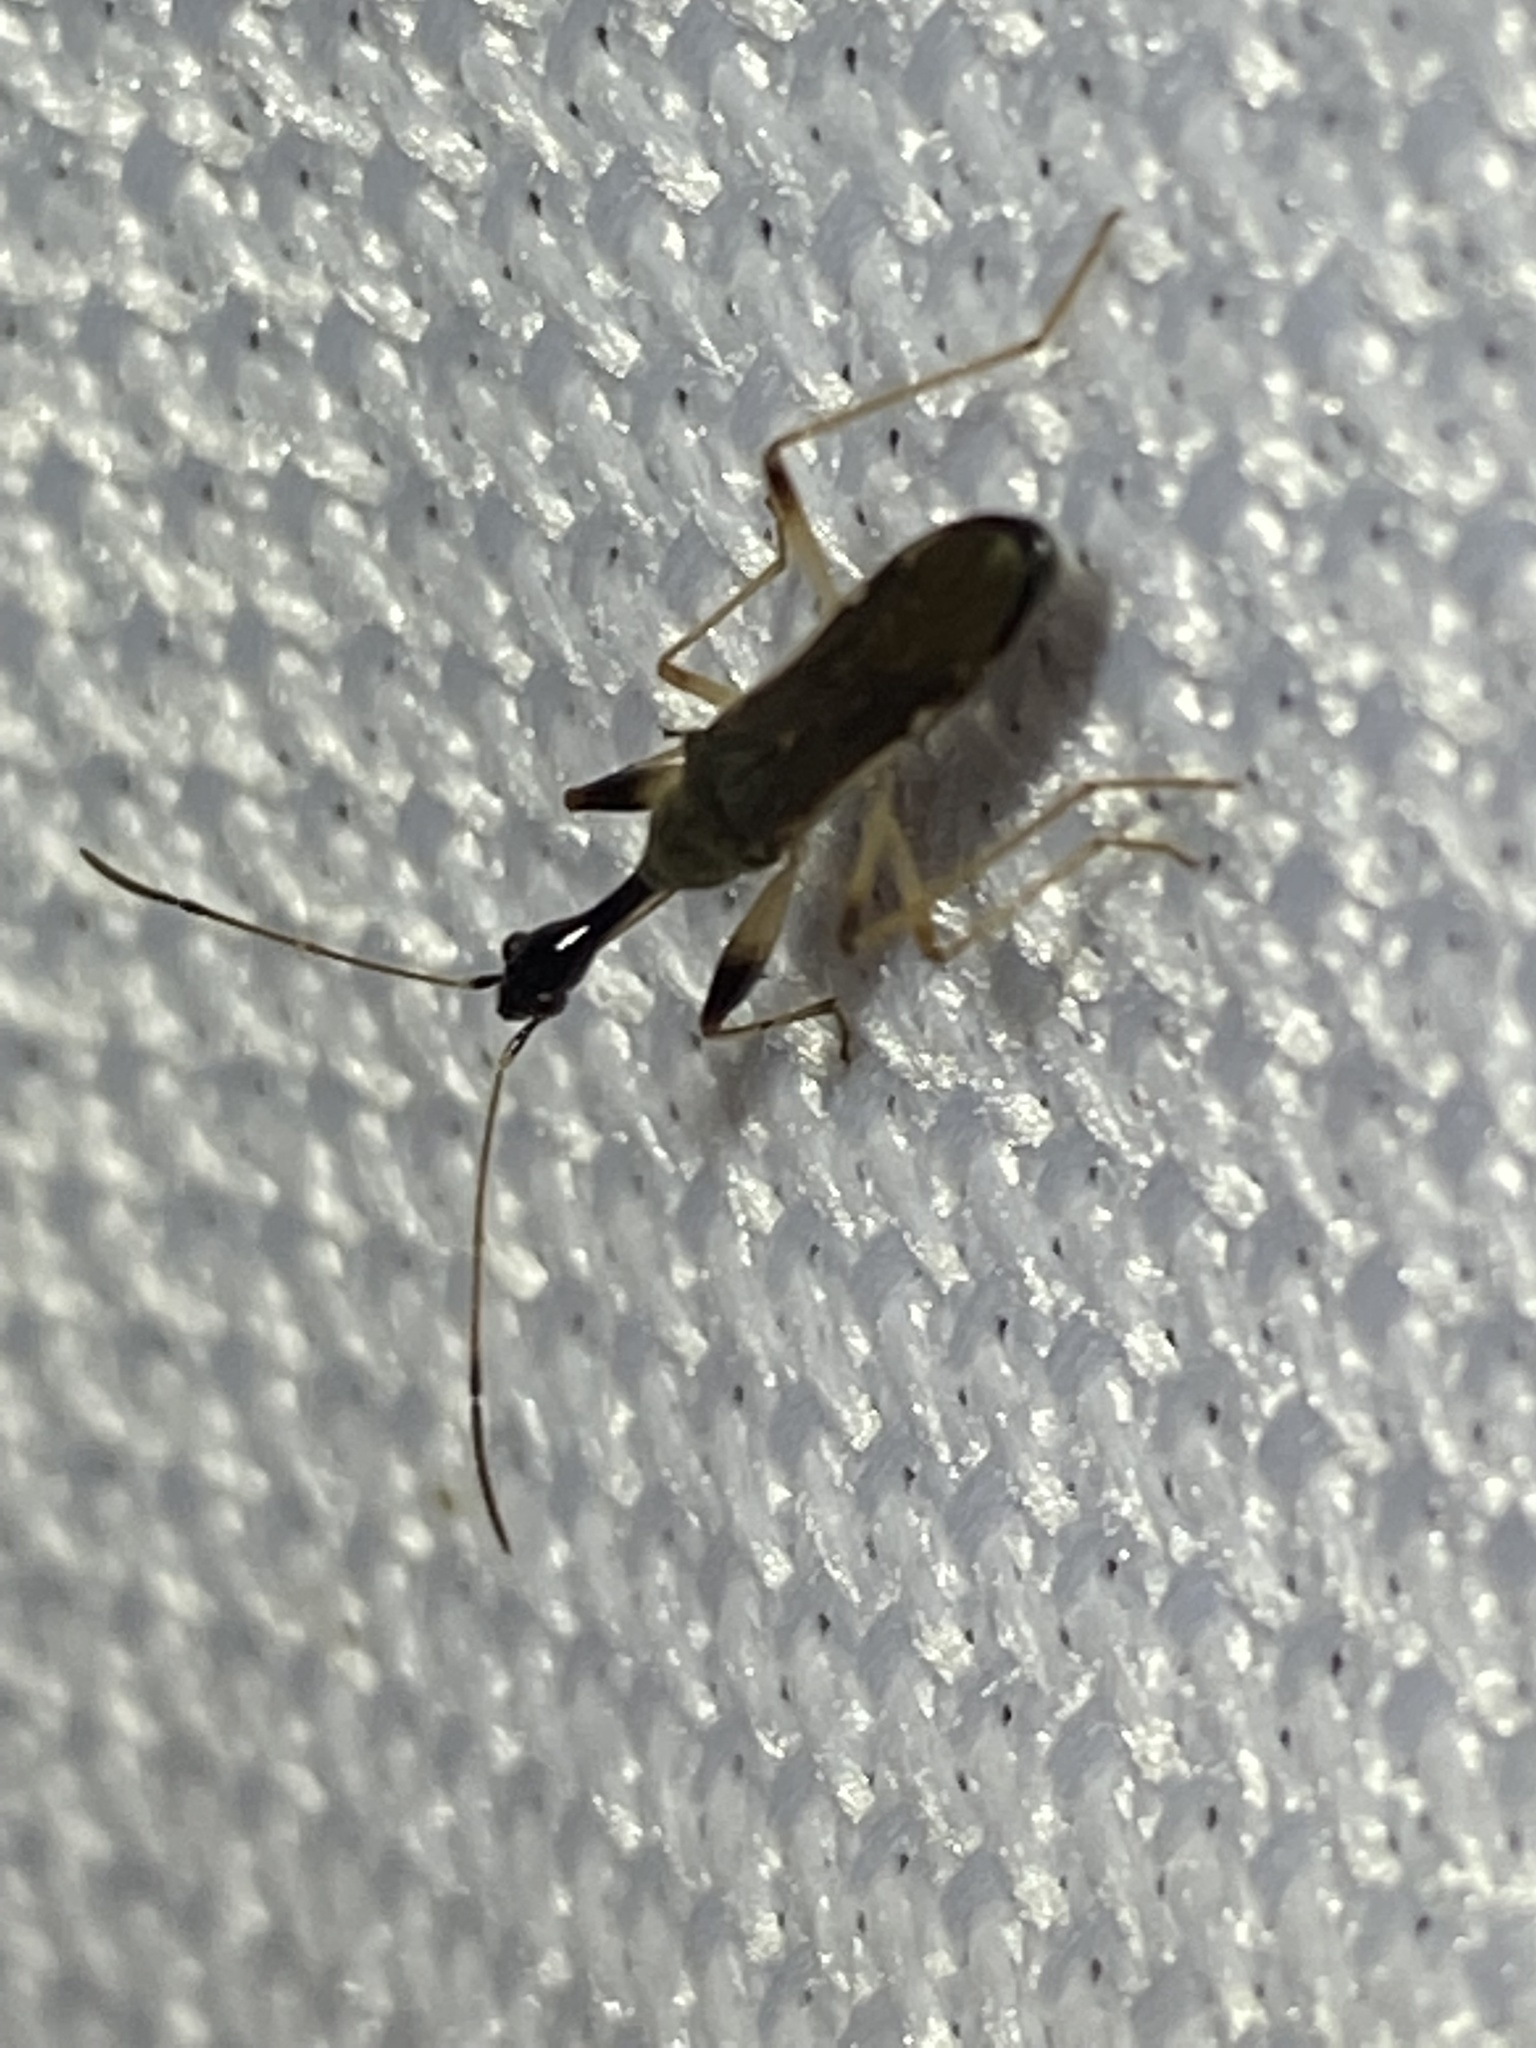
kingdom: Animalia
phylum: Arthropoda
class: Insecta
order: Hemiptera
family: Rhyparochromidae
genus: Myodocha
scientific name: Myodocha serripes
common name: Long-necked seed bug
